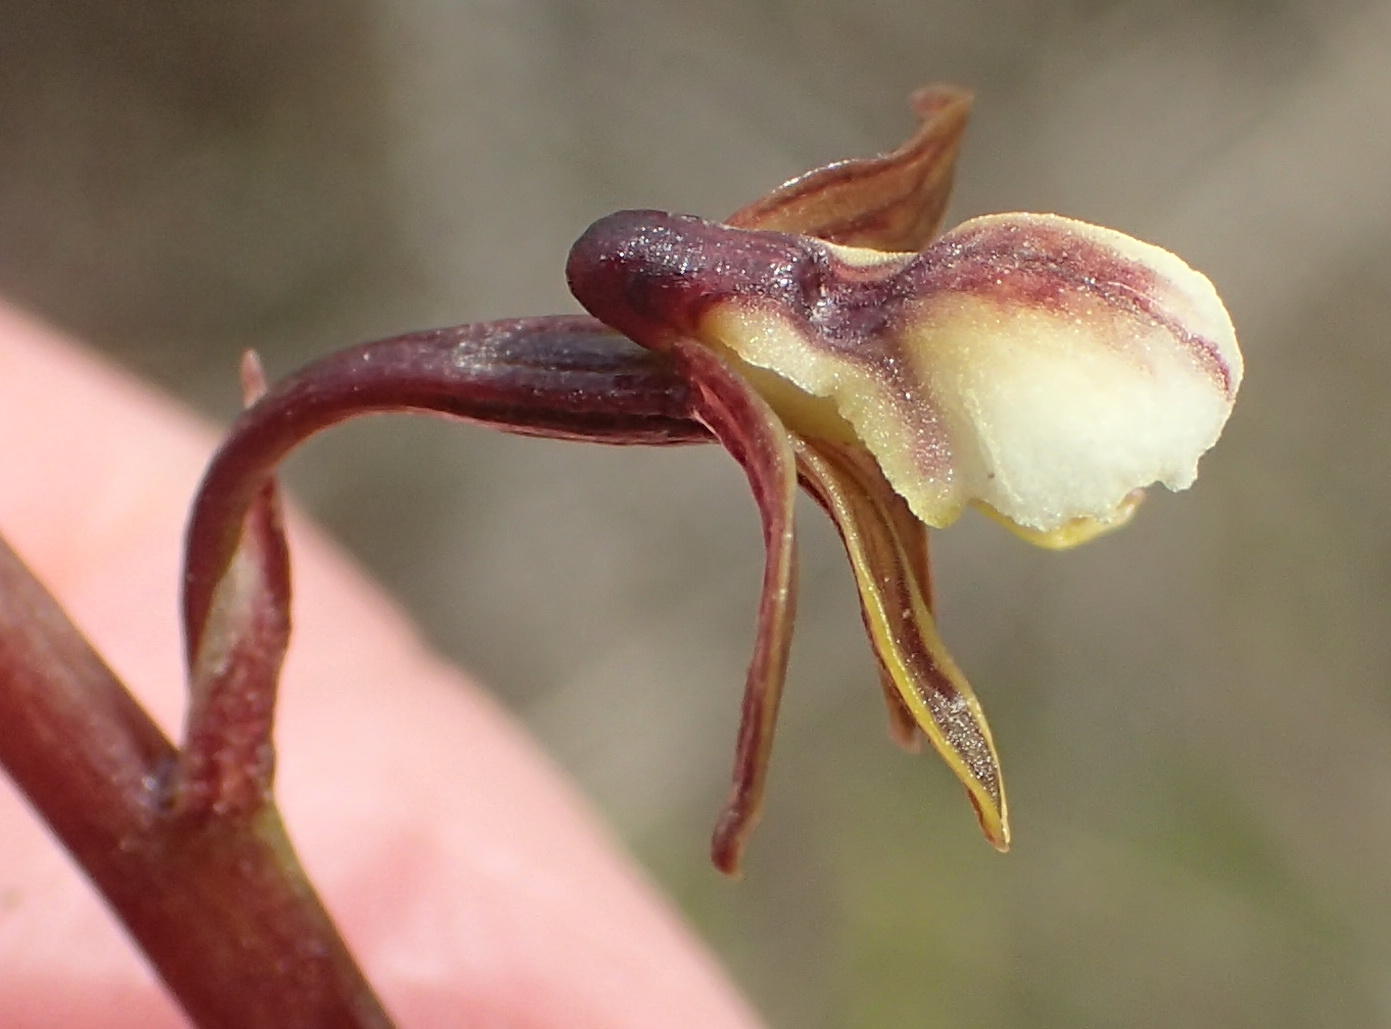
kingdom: Plantae
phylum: Tracheophyta
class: Liliopsida
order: Asparagales
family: Orchidaceae
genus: Eulophia
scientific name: Eulophia cochlearis
